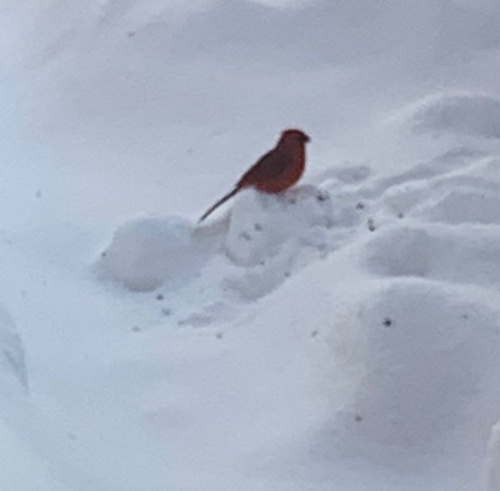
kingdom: Animalia
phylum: Chordata
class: Aves
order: Passeriformes
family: Cardinalidae
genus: Cardinalis
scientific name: Cardinalis cardinalis
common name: Northern cardinal
